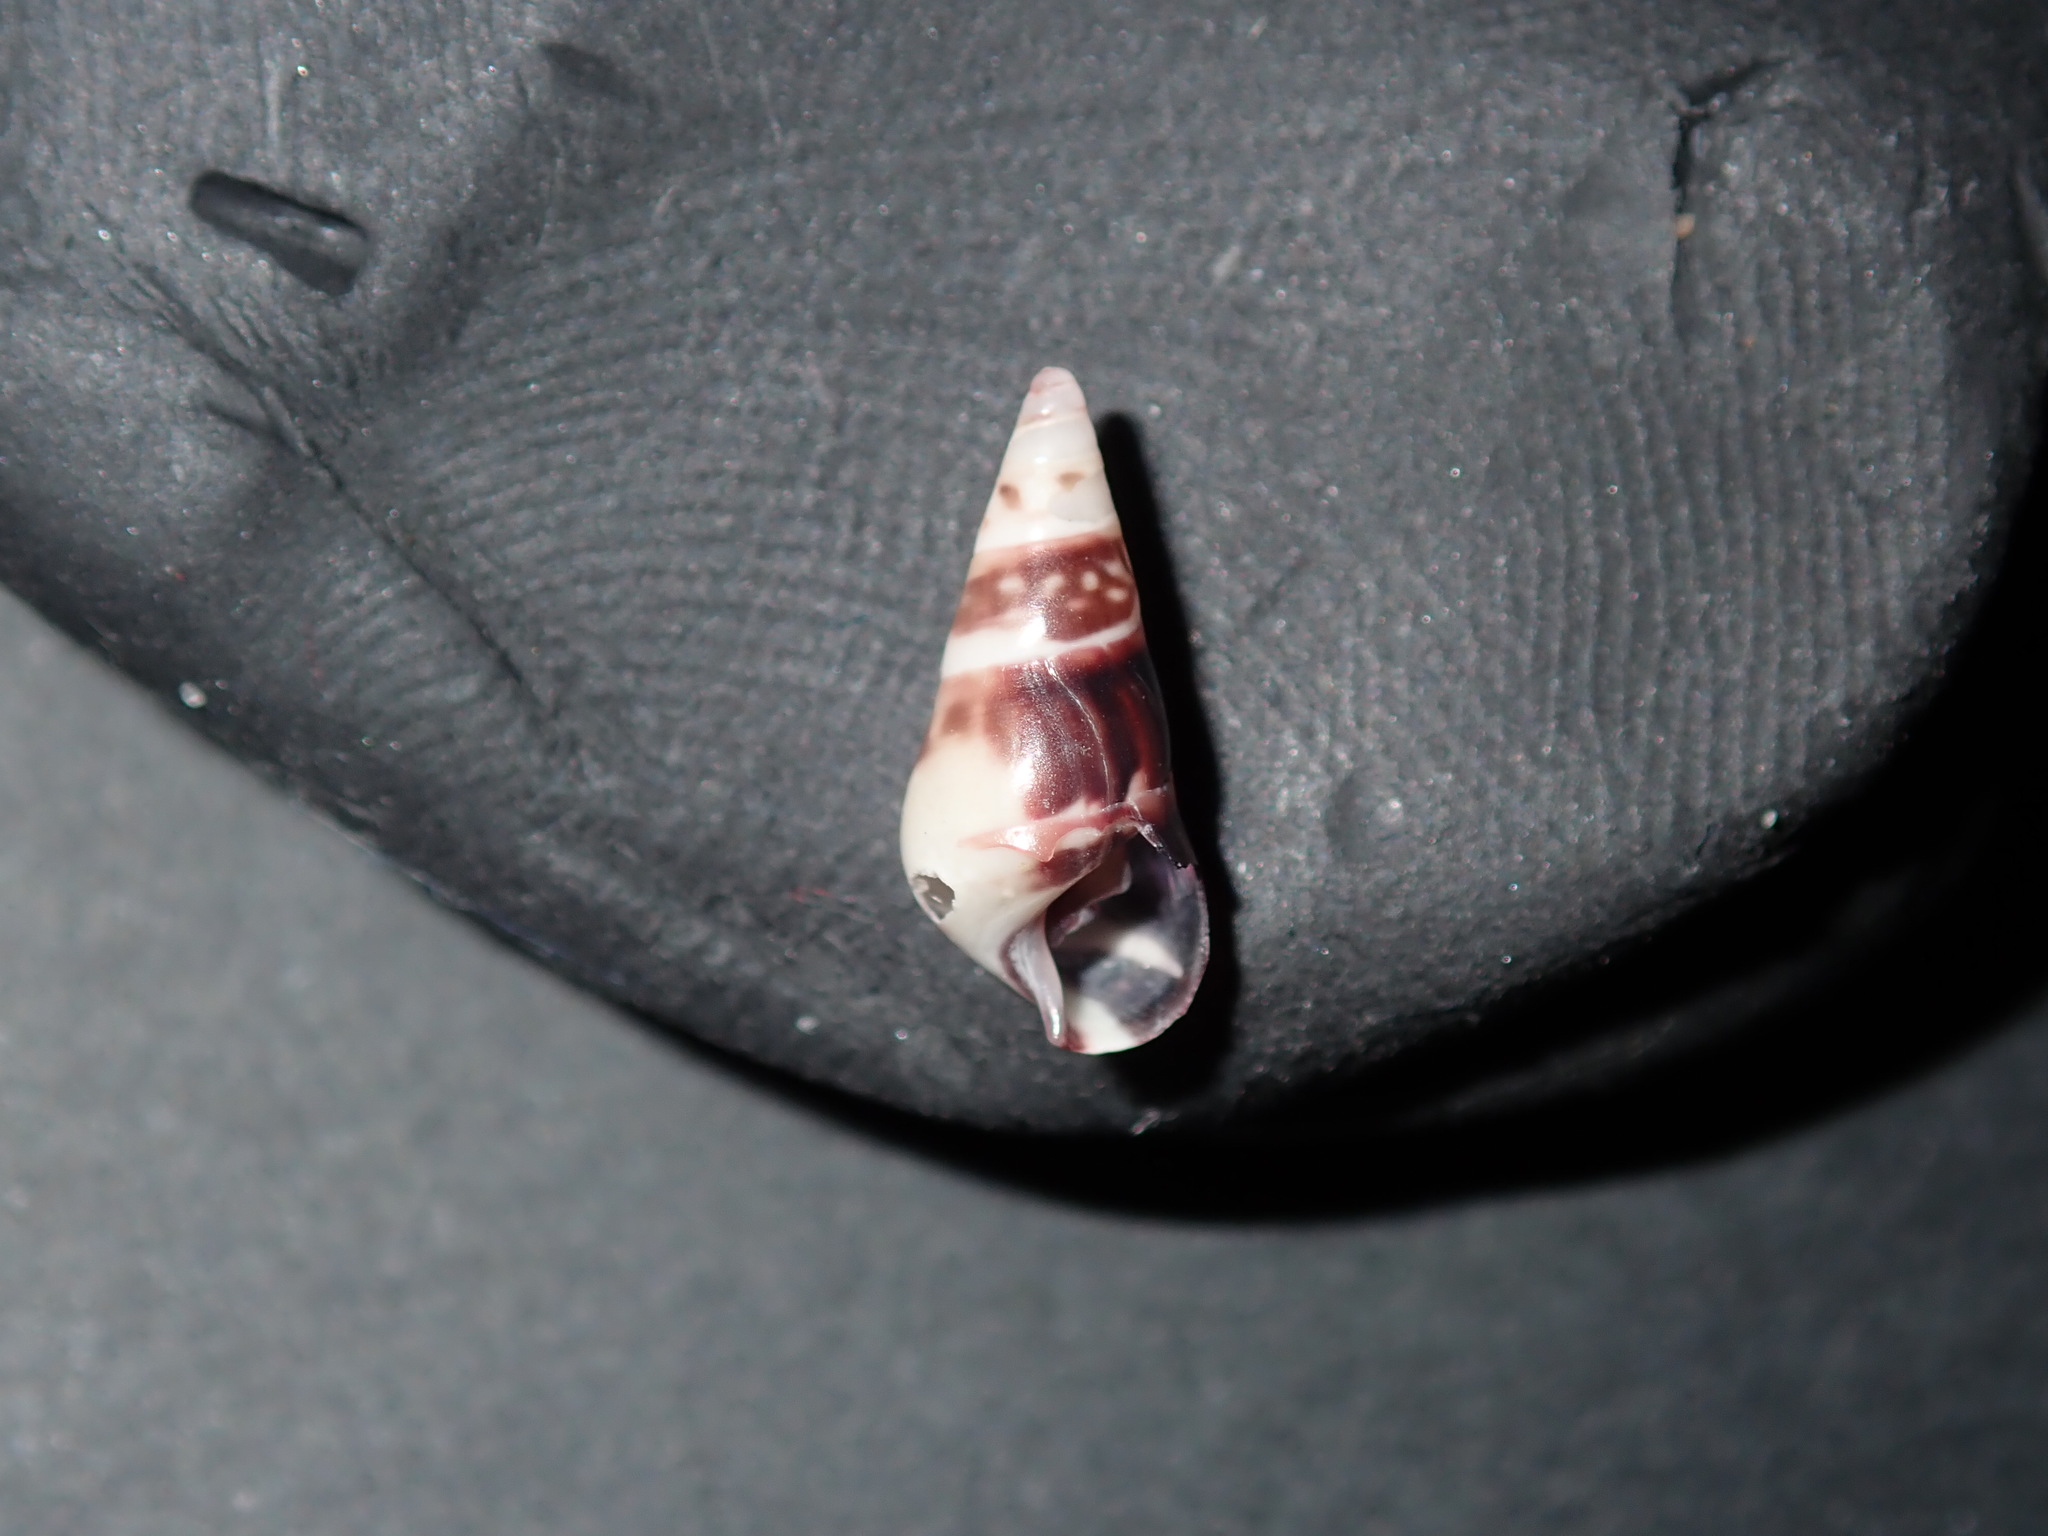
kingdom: Animalia
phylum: Mollusca
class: Gastropoda
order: Trochida
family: Trochidae
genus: Bankivia
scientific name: Bankivia fasciata
